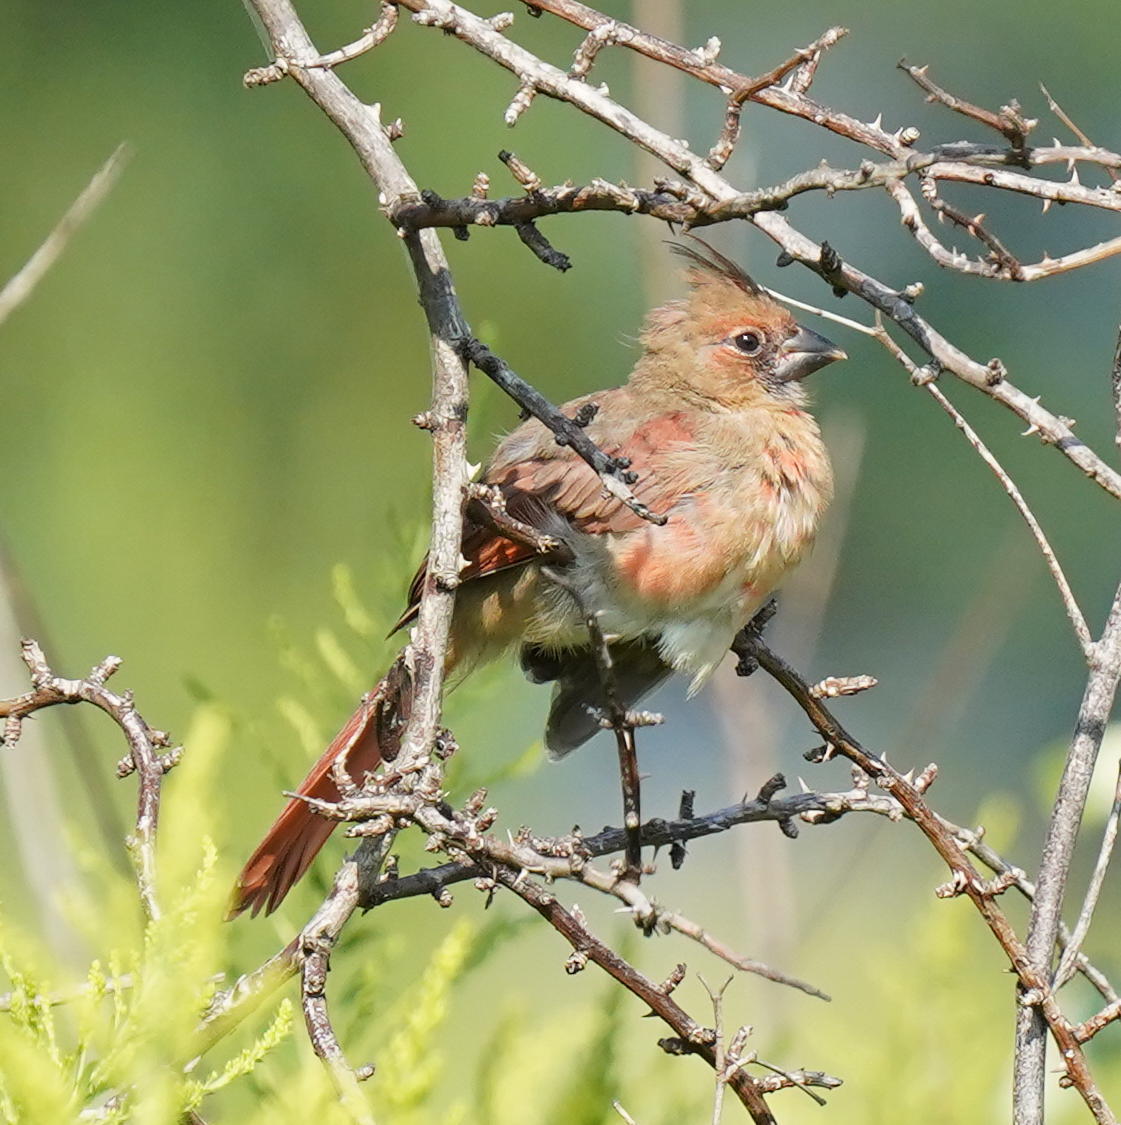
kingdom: Animalia
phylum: Chordata
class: Aves
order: Passeriformes
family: Cardinalidae
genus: Cardinalis
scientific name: Cardinalis cardinalis
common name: Northern cardinal
